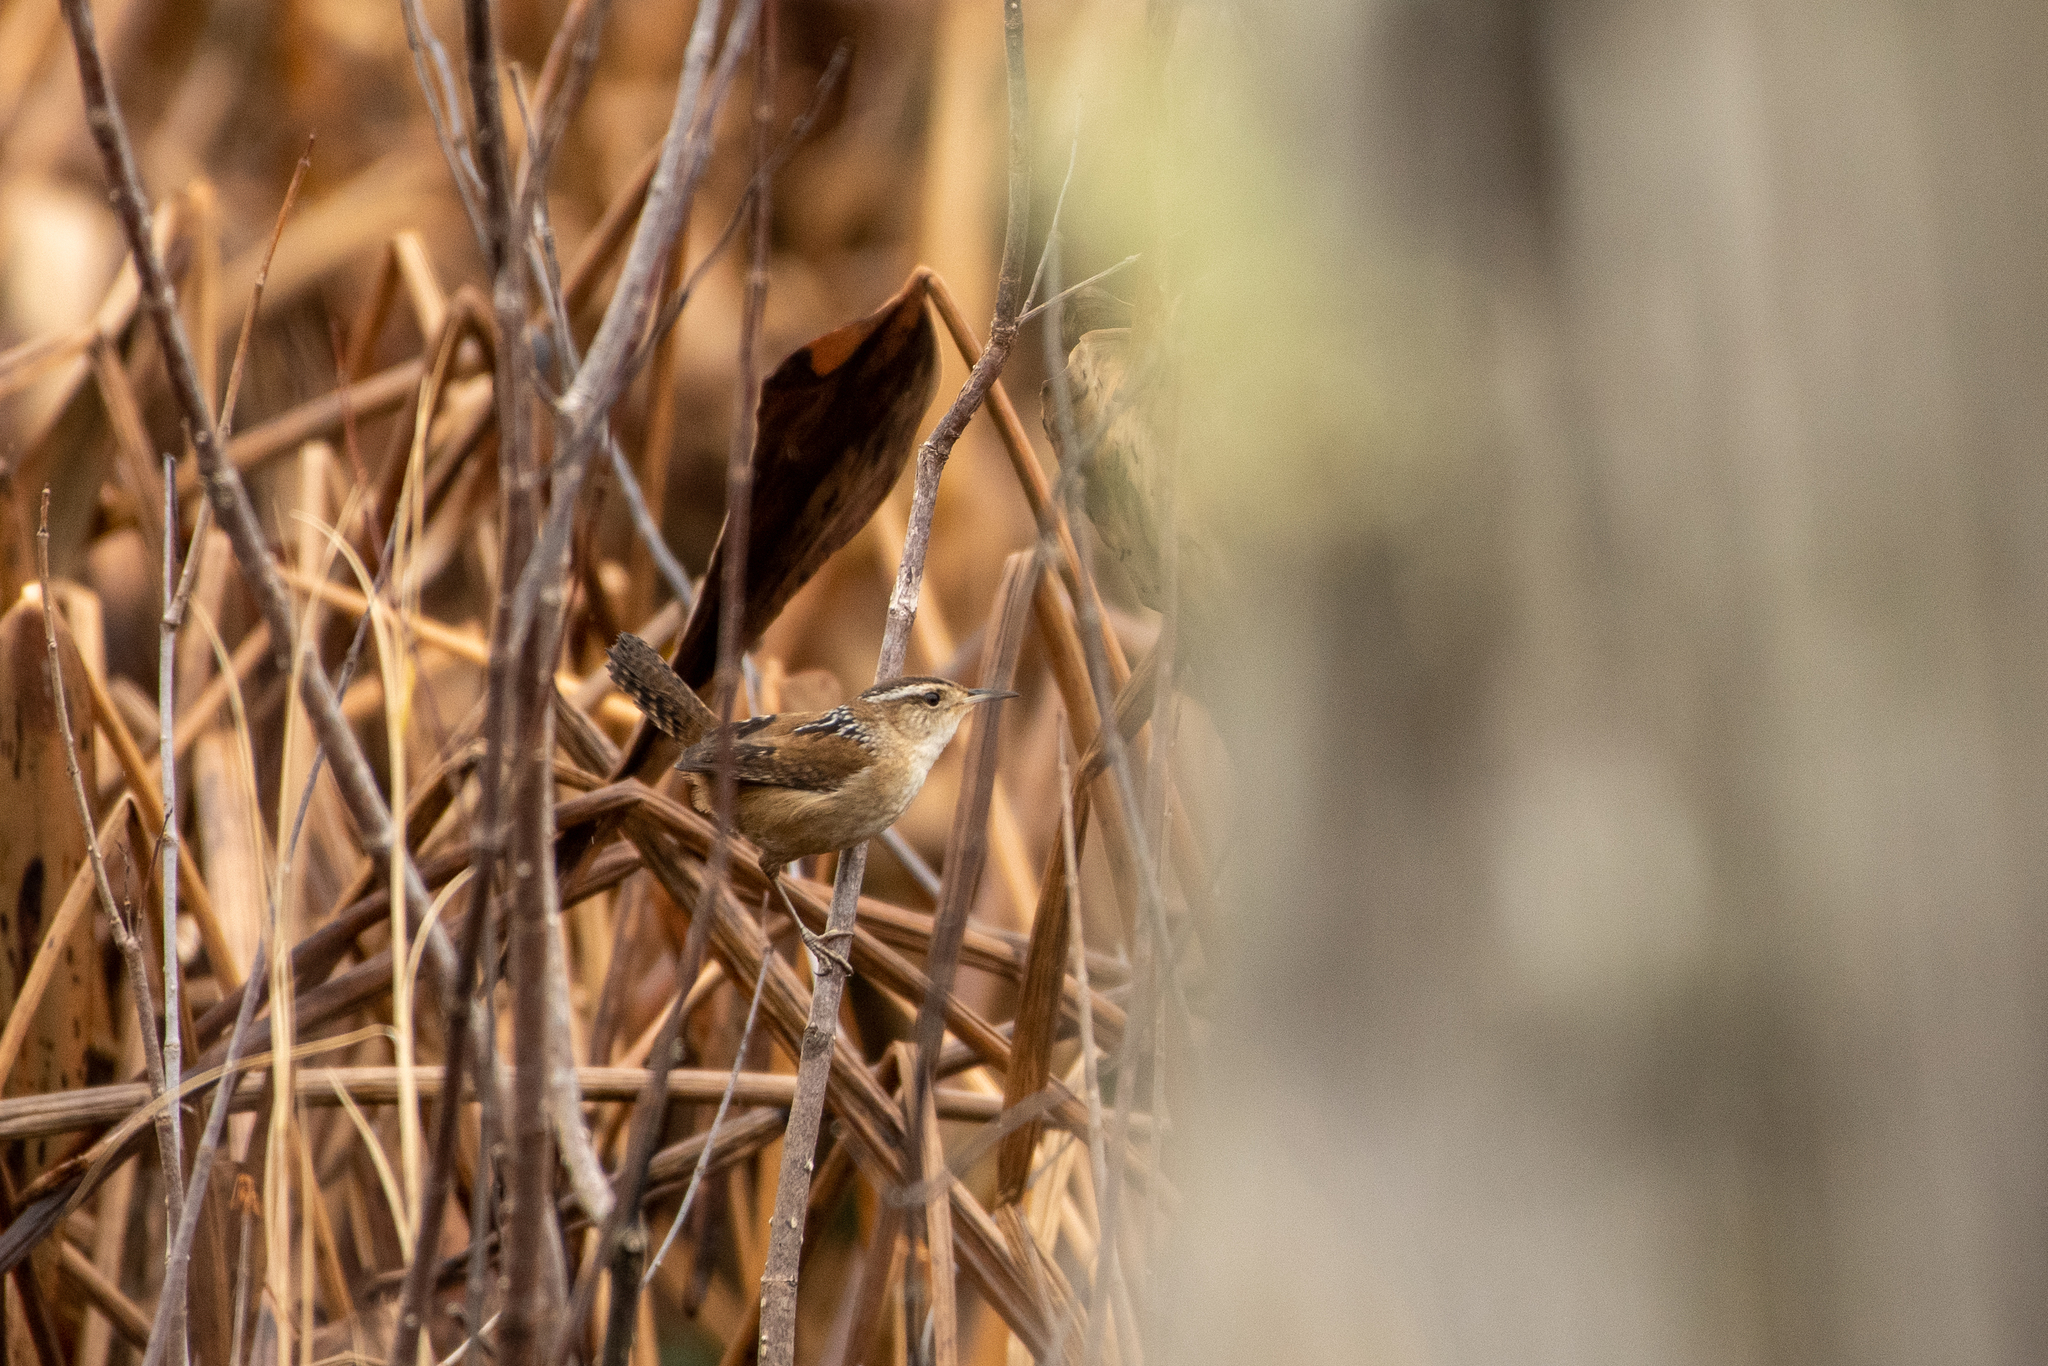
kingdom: Animalia
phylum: Chordata
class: Aves
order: Passeriformes
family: Troglodytidae
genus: Cistothorus
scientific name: Cistothorus palustris
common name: Marsh wren
